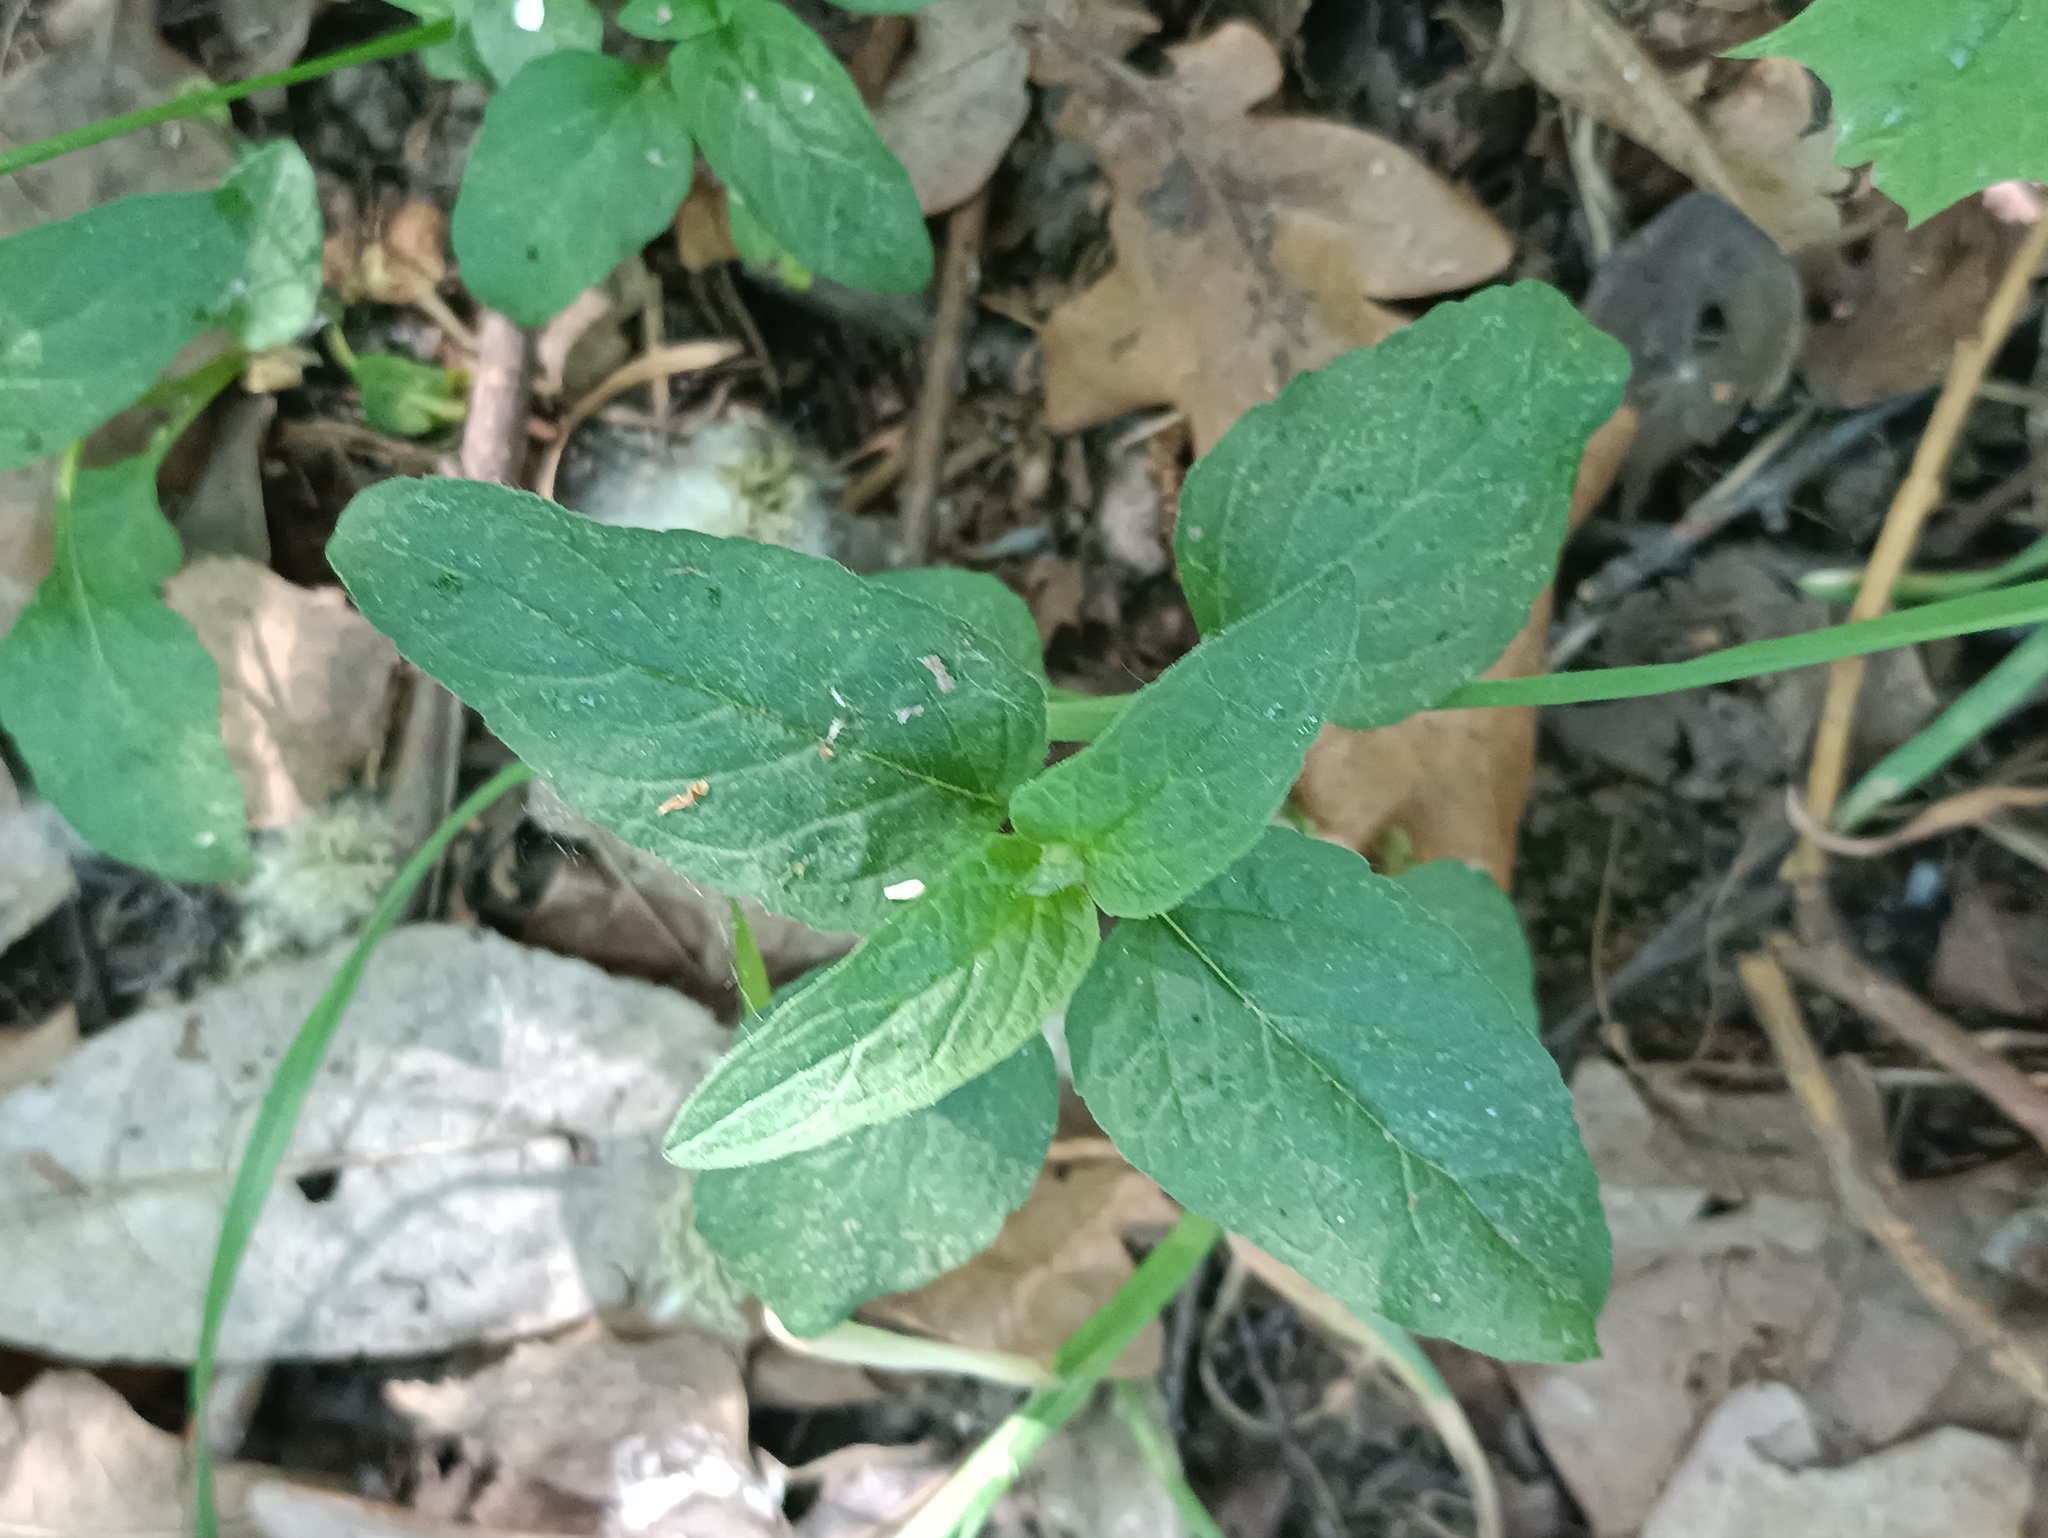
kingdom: Plantae
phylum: Tracheophyta
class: Magnoliopsida
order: Lamiales
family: Lamiaceae
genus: Prunella
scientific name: Prunella vulgaris
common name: Heal-all
